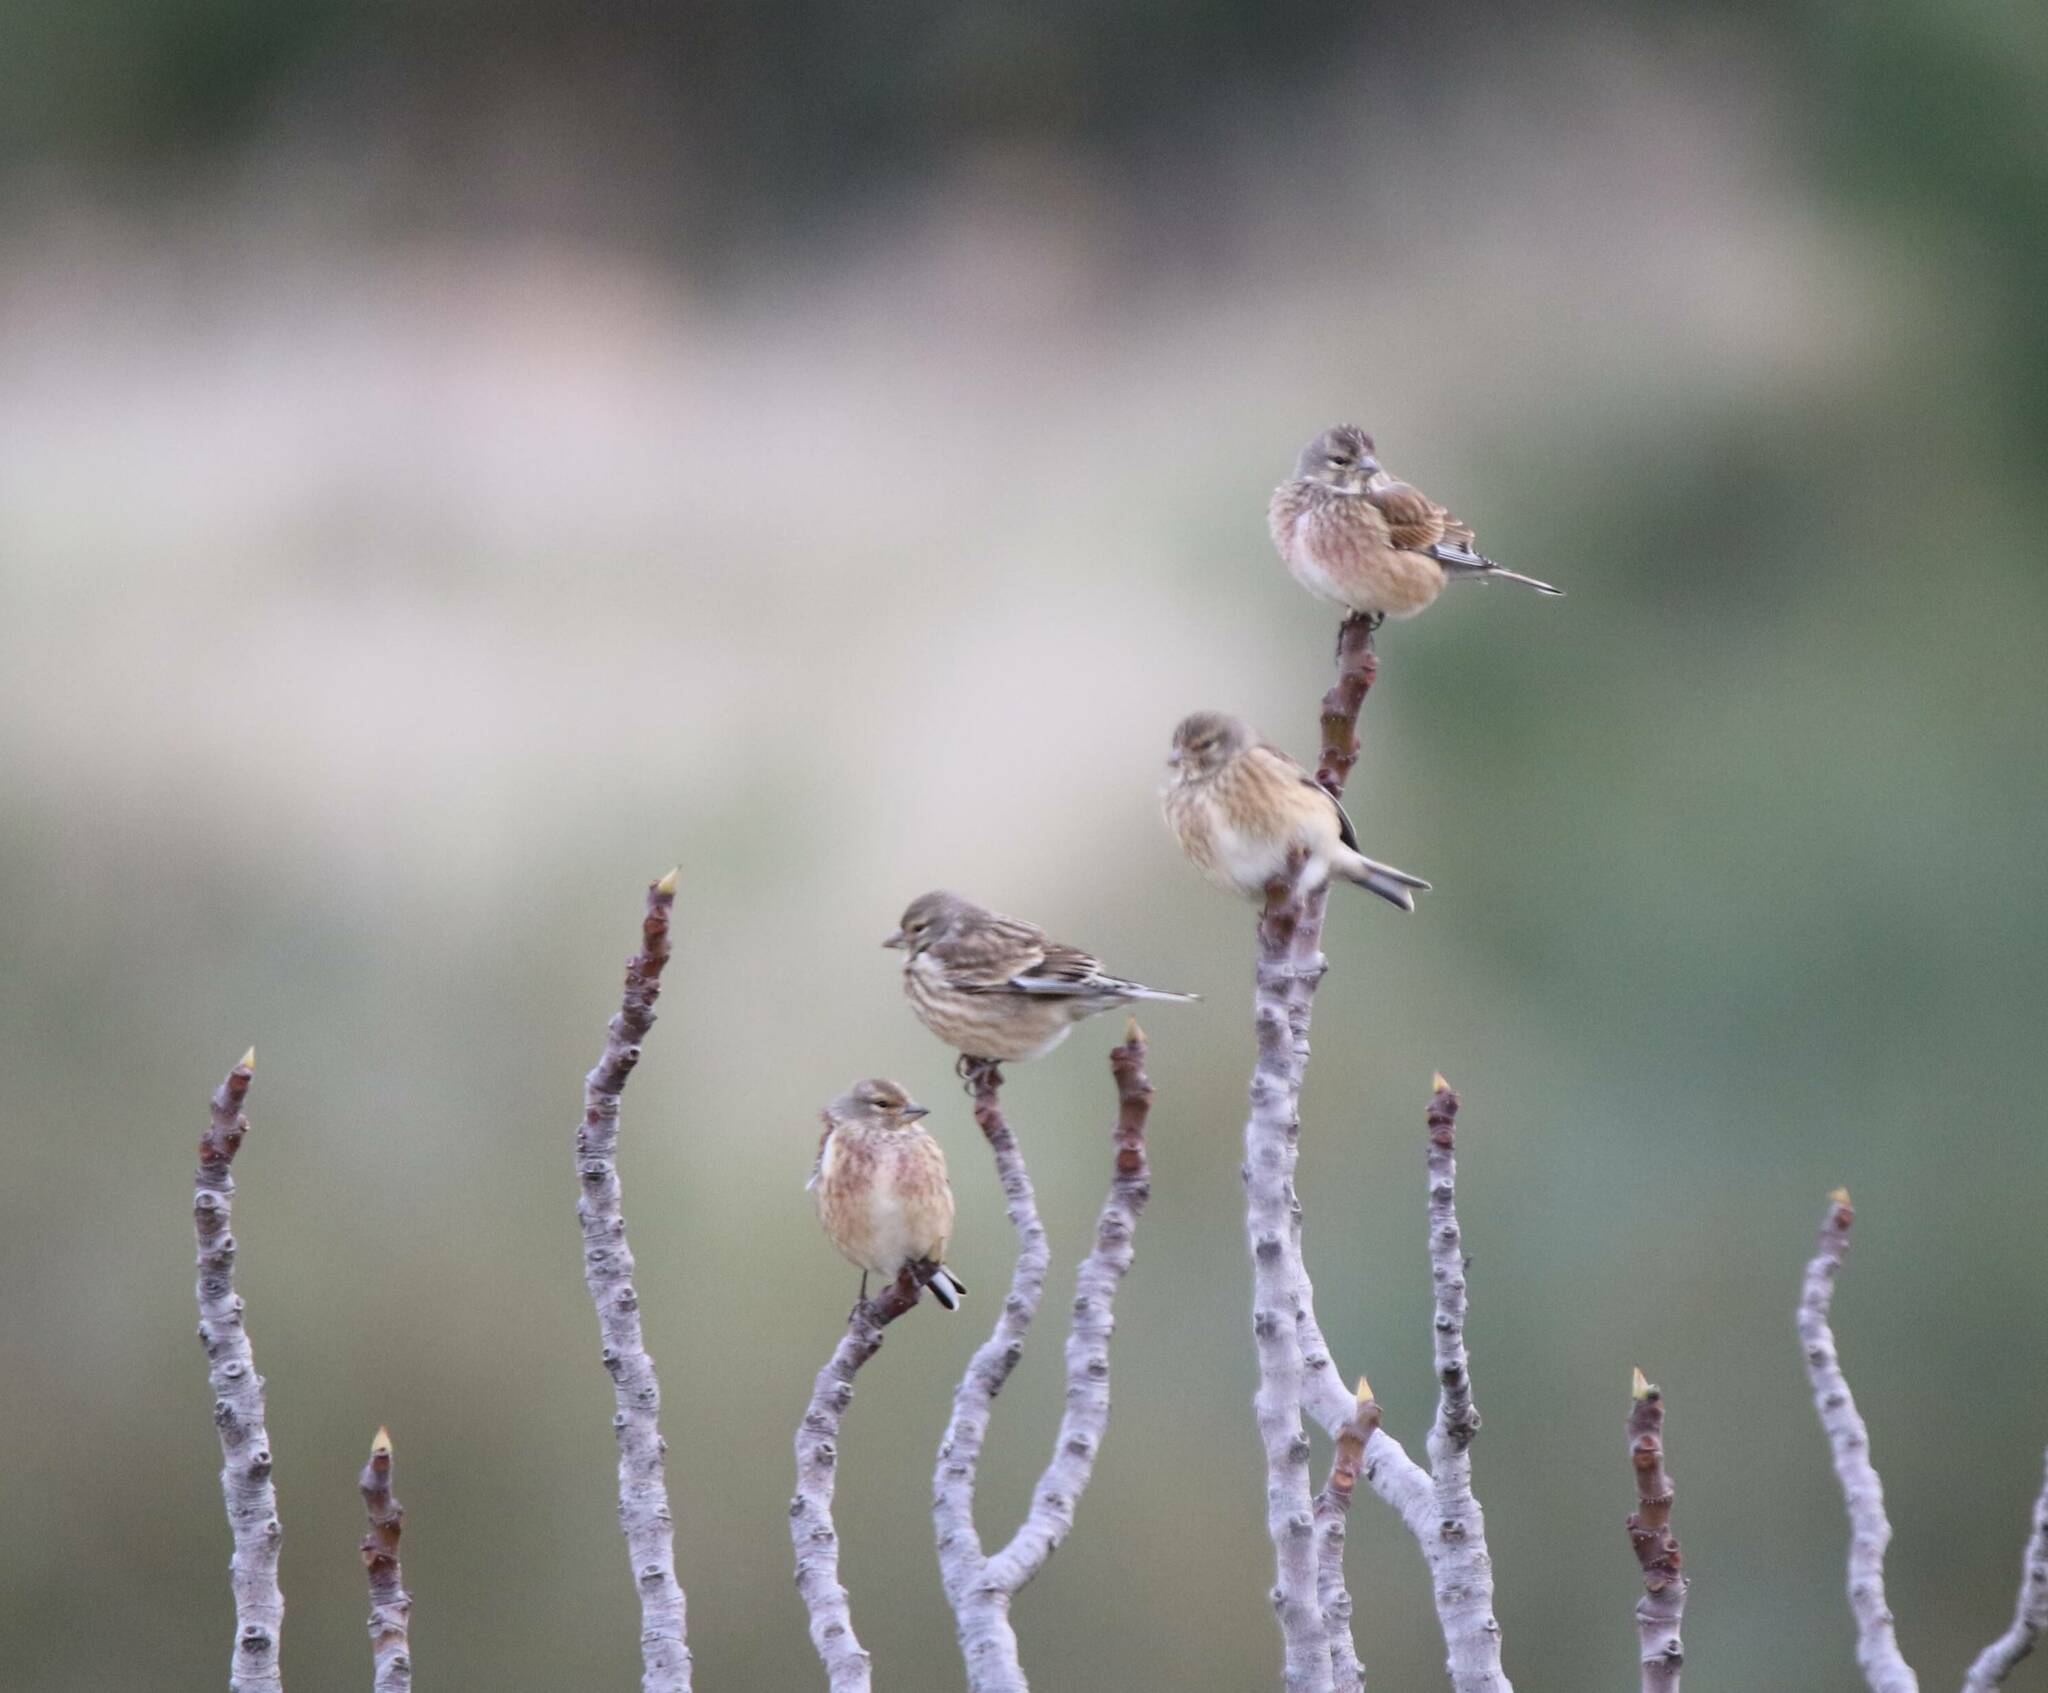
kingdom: Animalia
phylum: Chordata
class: Aves
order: Passeriformes
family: Fringillidae
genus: Linaria
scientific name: Linaria cannabina
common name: Common linnet
